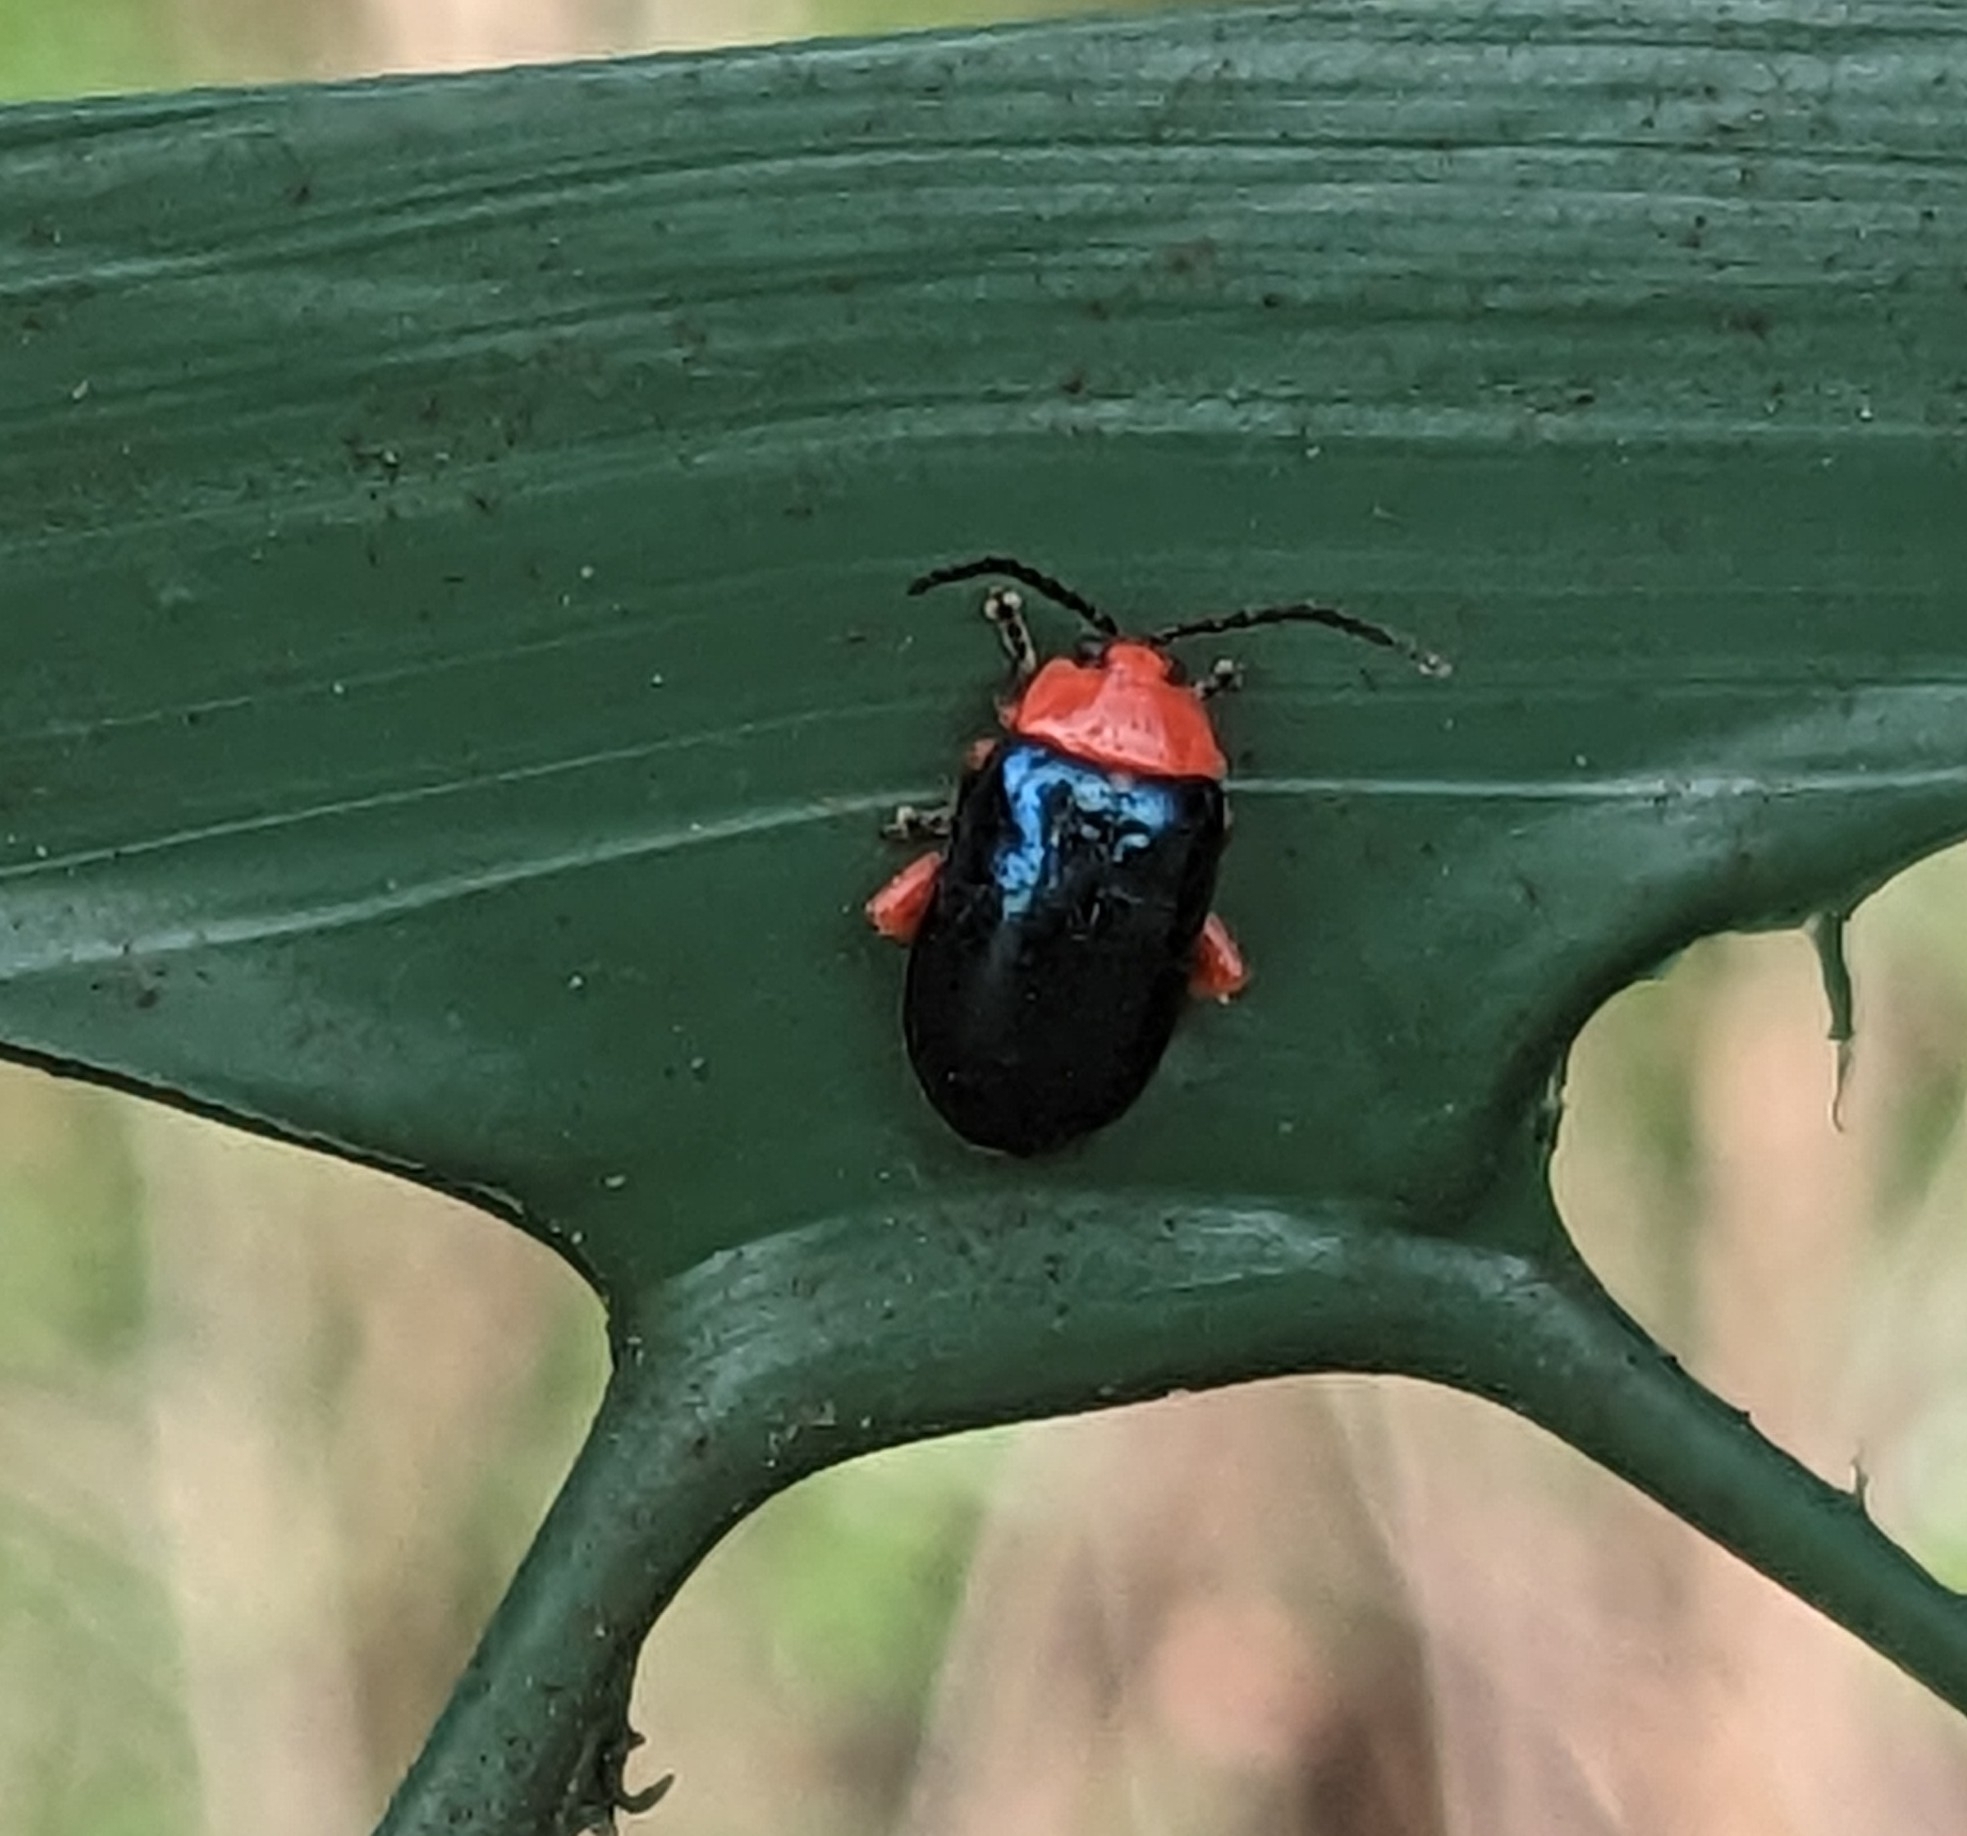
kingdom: Animalia
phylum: Arthropoda
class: Insecta
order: Coleoptera
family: Chrysomelidae
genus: Asphaera
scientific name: Asphaera lustrans
